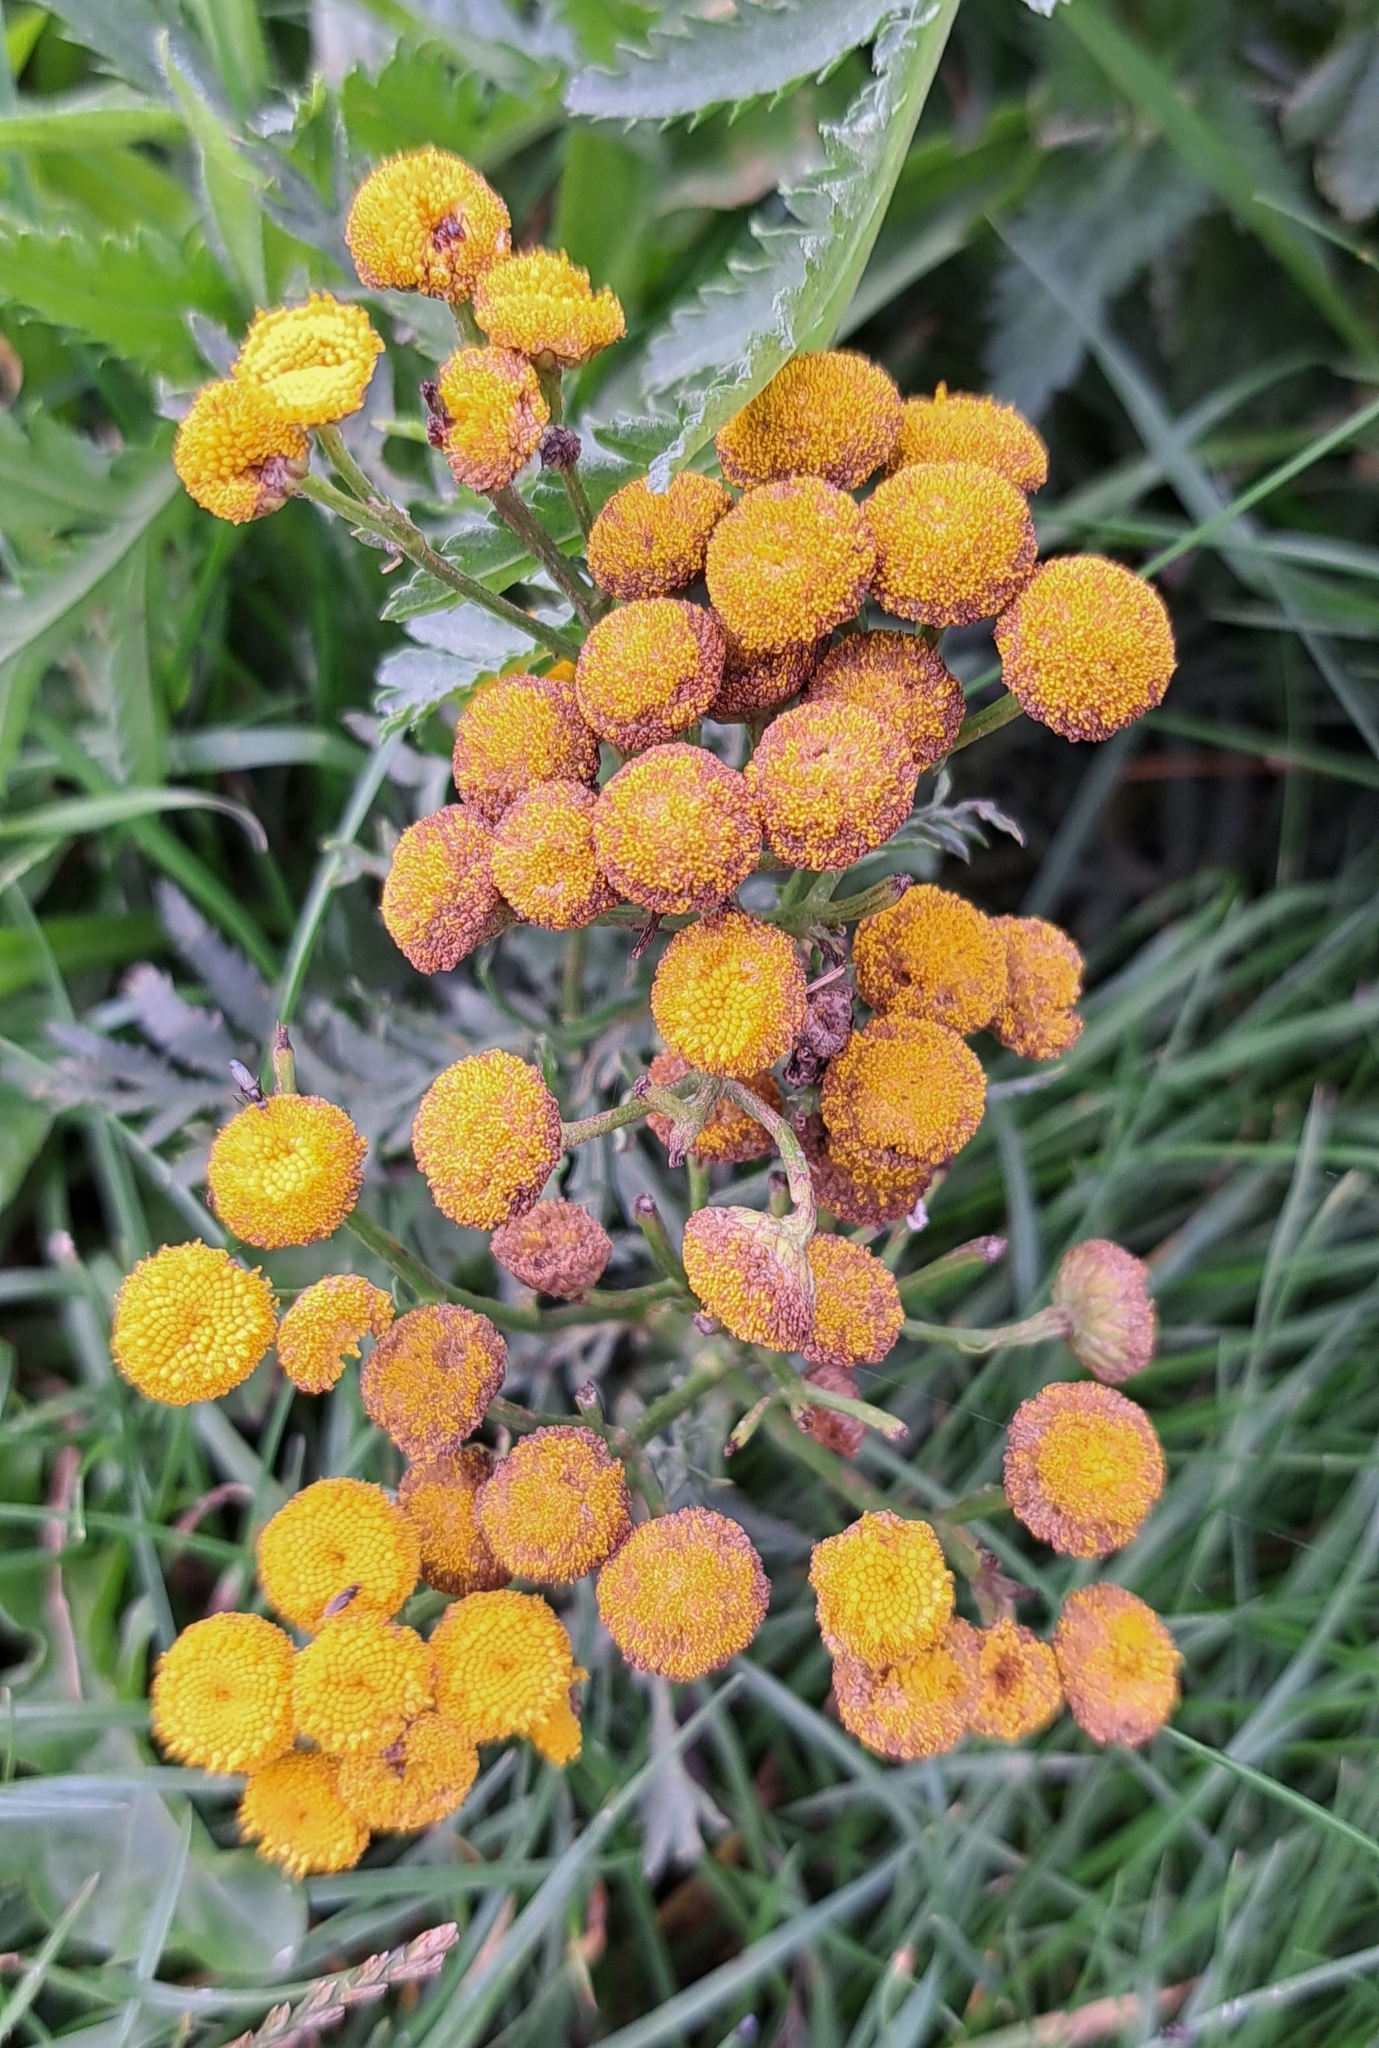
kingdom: Plantae
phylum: Tracheophyta
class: Magnoliopsida
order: Asterales
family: Asteraceae
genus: Tanacetum
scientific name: Tanacetum vulgare
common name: Common tansy
